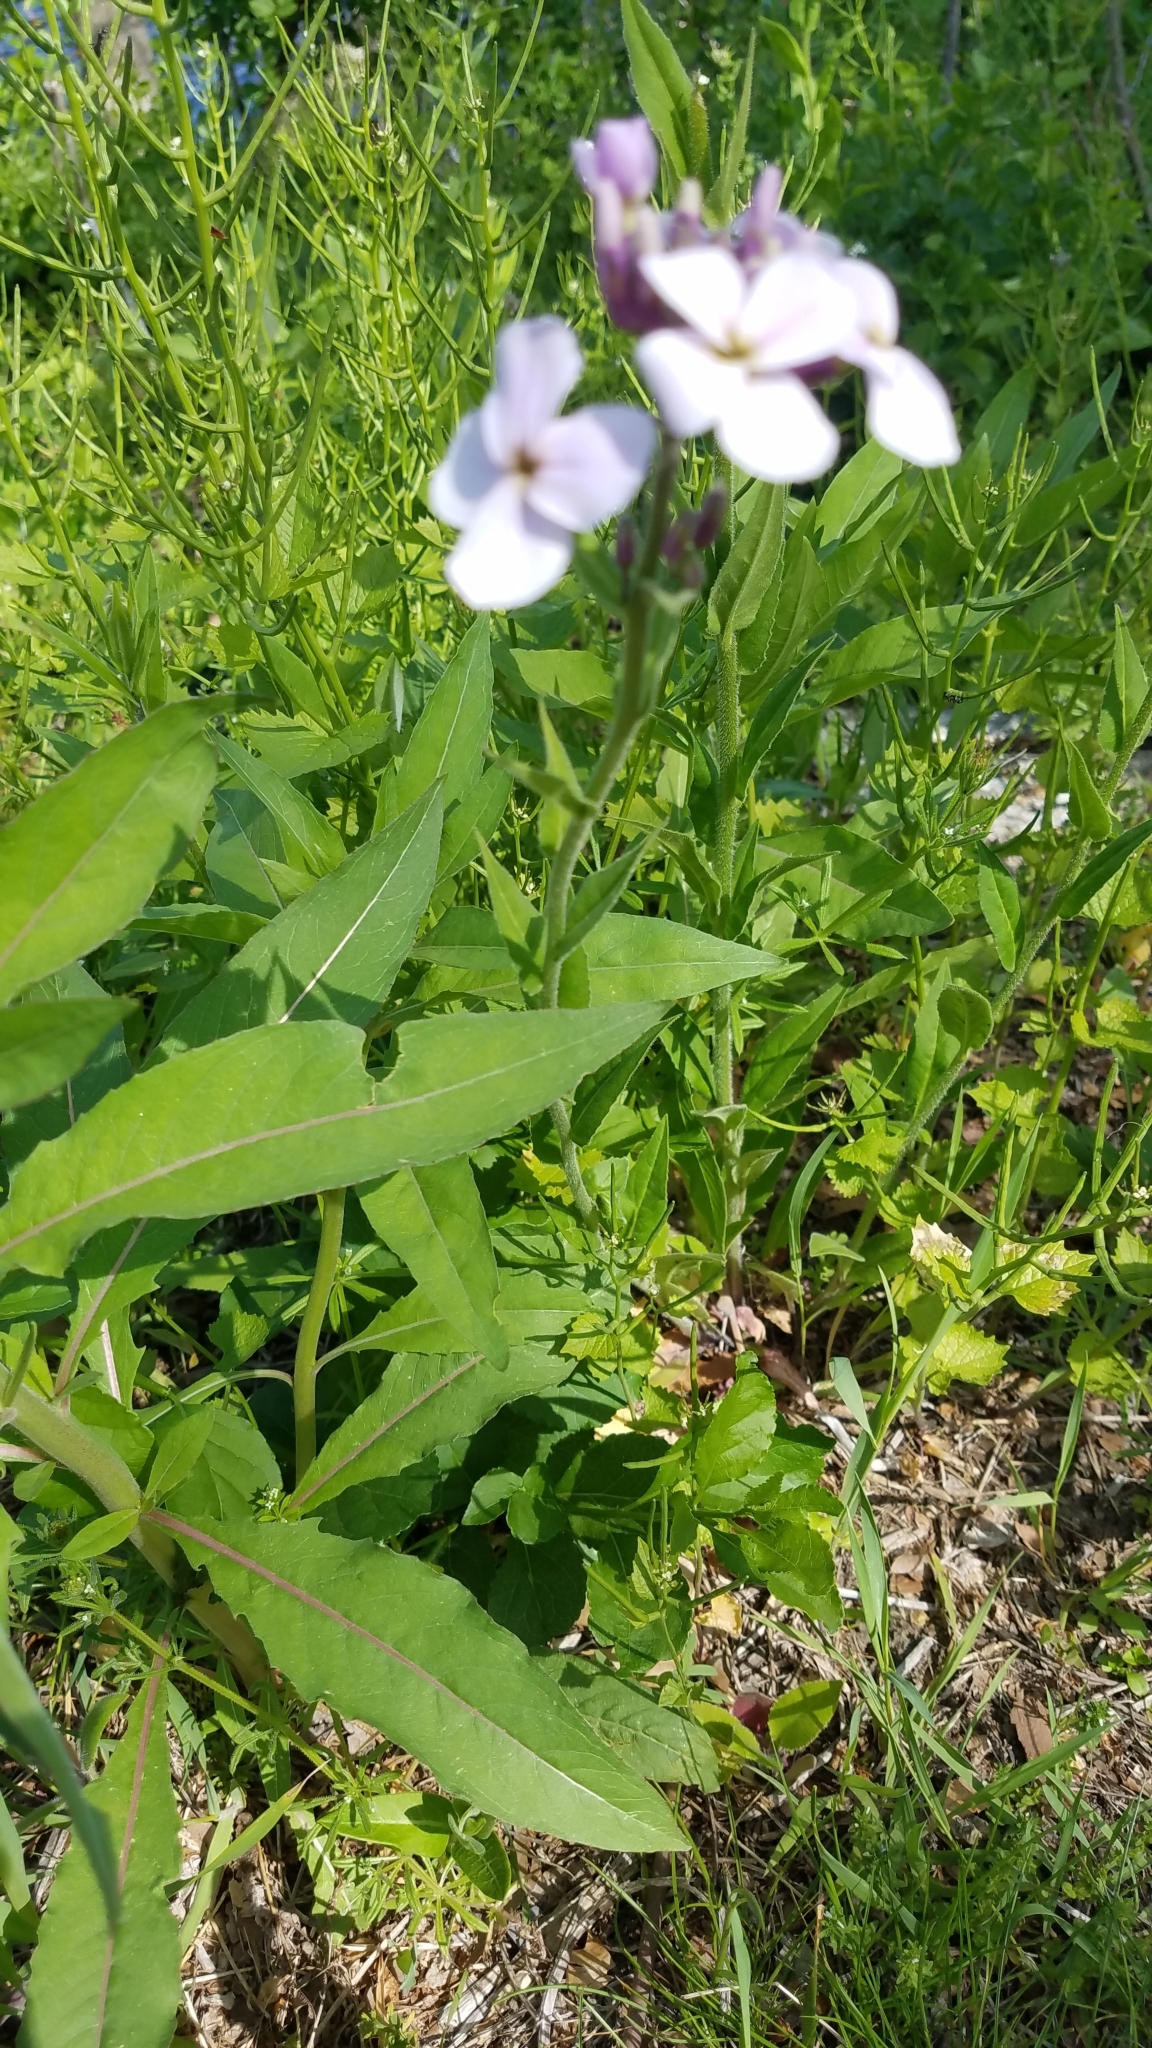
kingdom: Plantae
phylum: Tracheophyta
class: Magnoliopsida
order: Brassicales
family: Brassicaceae
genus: Hesperis
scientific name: Hesperis matronalis
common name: Dame's-violet
